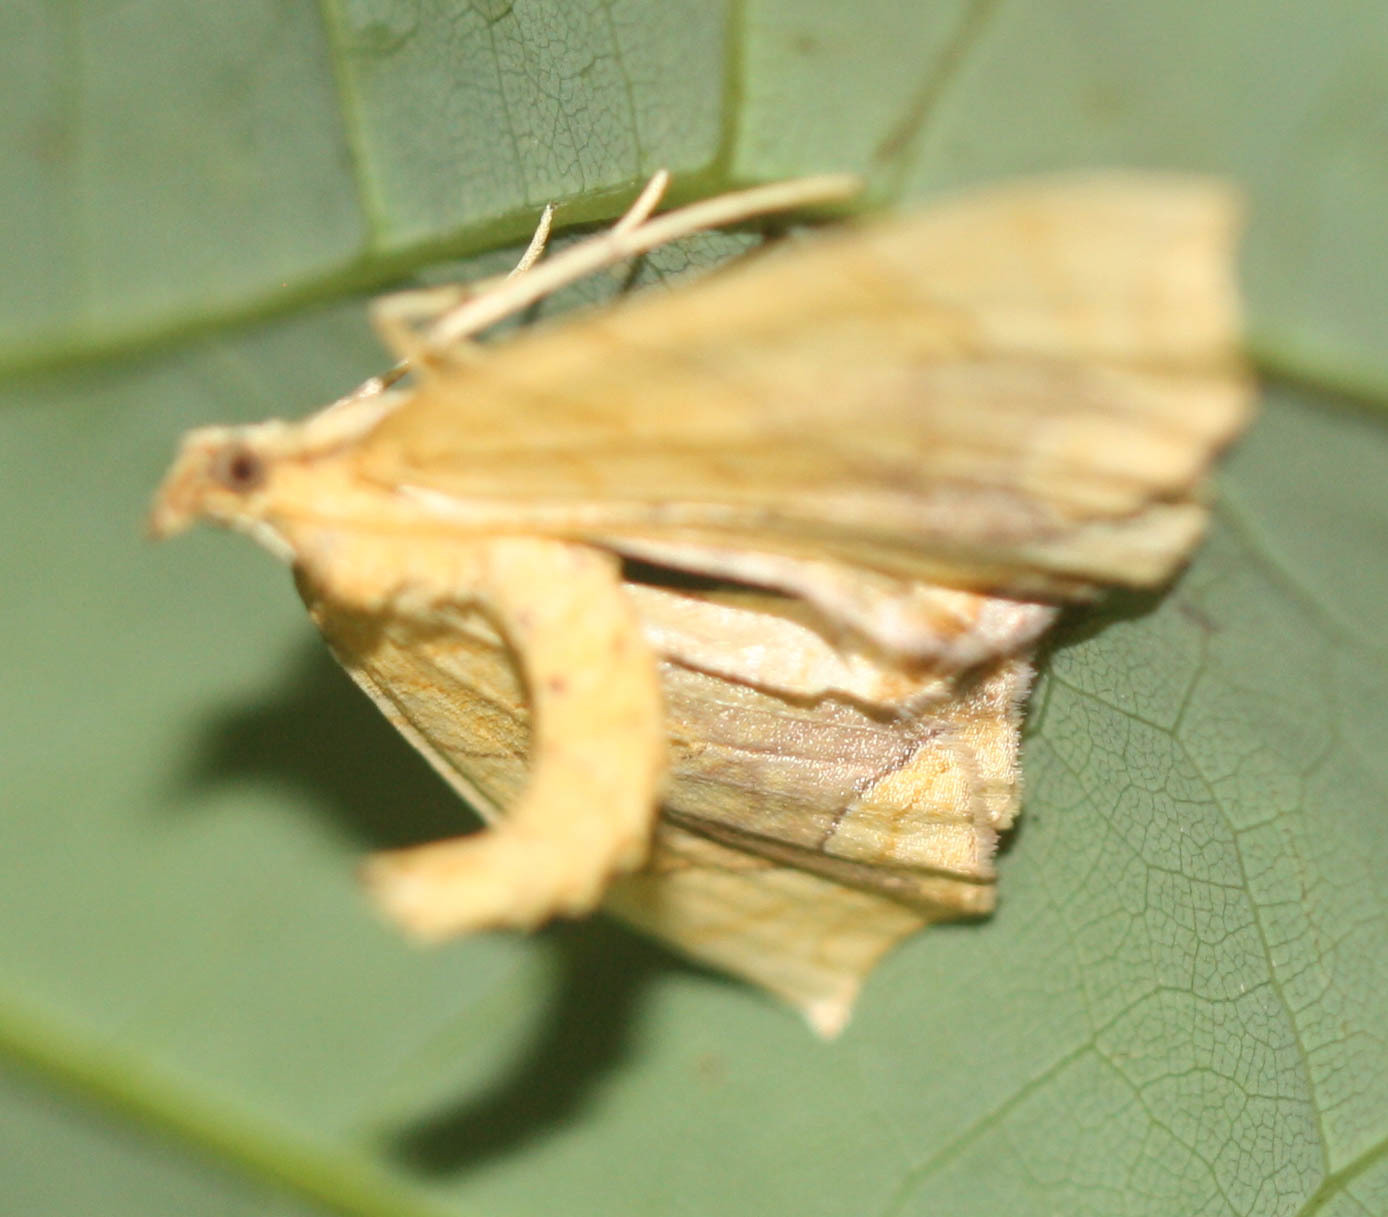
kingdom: Animalia
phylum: Arthropoda
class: Insecta
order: Lepidoptera
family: Geometridae
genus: Eulithis
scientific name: Eulithis diversilineata
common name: Grapevine looper
